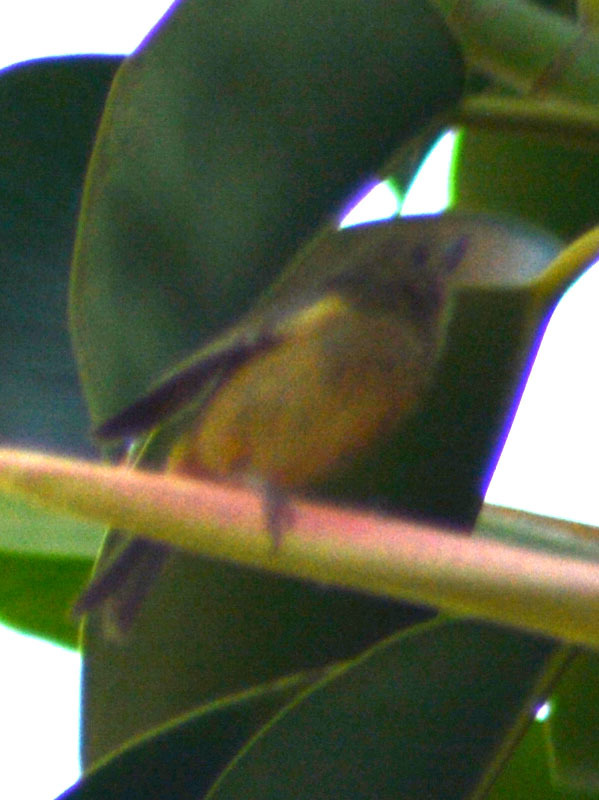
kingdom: Animalia
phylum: Chordata
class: Aves
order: Passeriformes
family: Thraupidae
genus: Diglossa
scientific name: Diglossa baritula
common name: Cinnamon-bellied flowerpiercer
